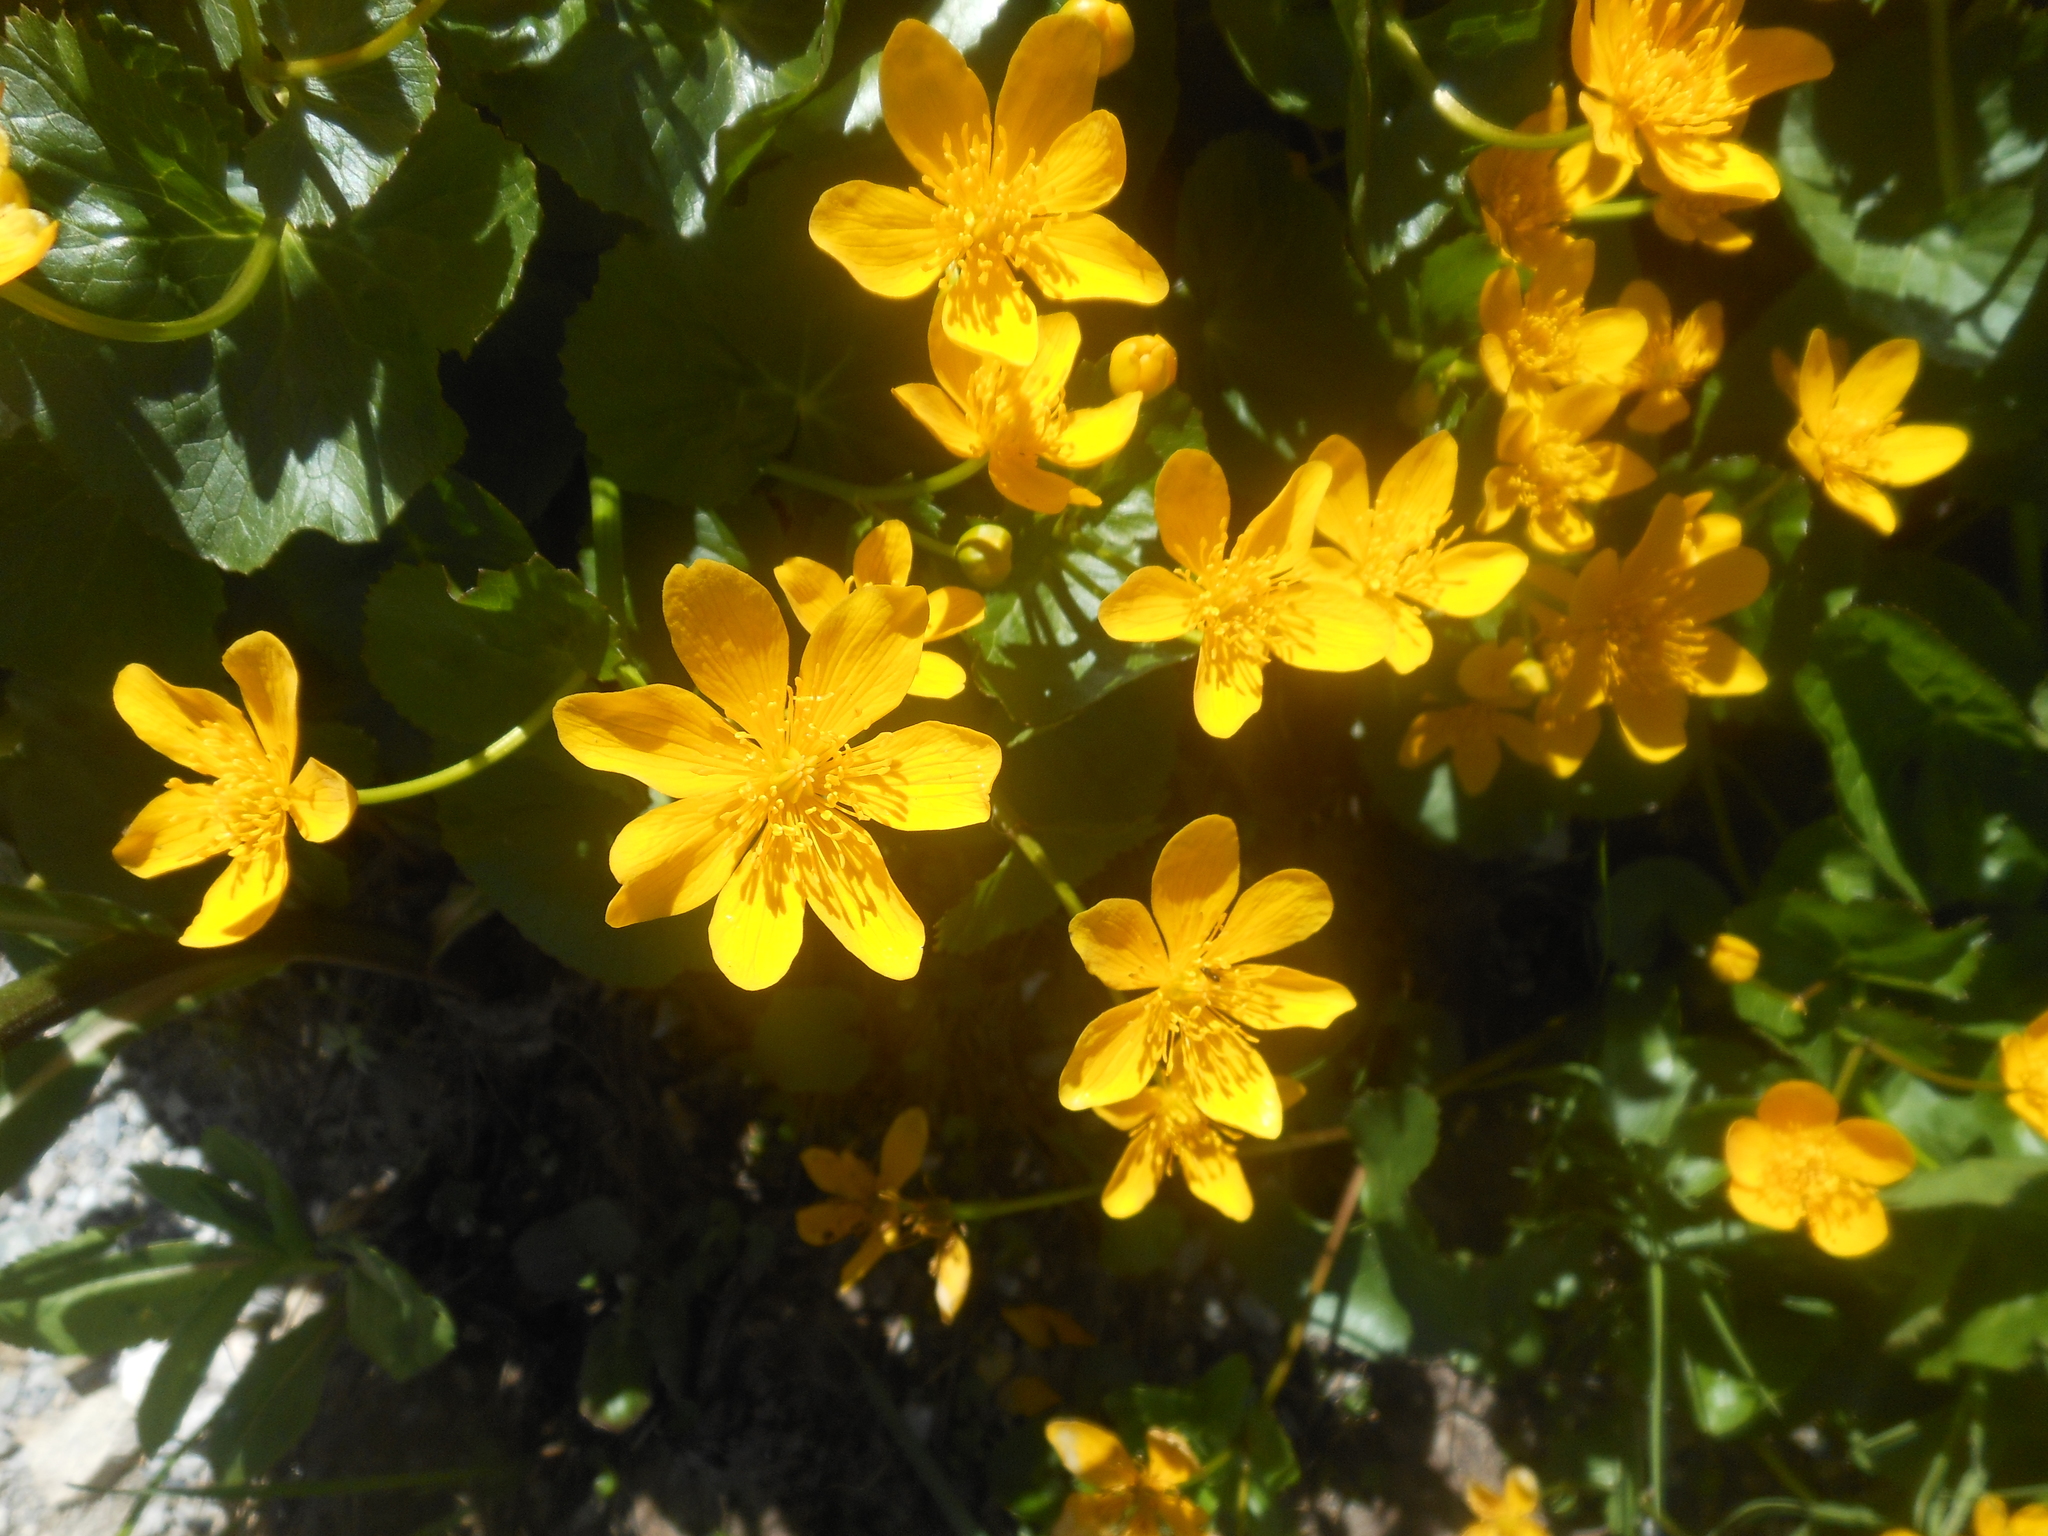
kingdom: Plantae
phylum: Tracheophyta
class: Magnoliopsida
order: Ranunculales
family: Ranunculaceae
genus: Caltha
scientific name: Caltha palustris
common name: Marsh marigold
